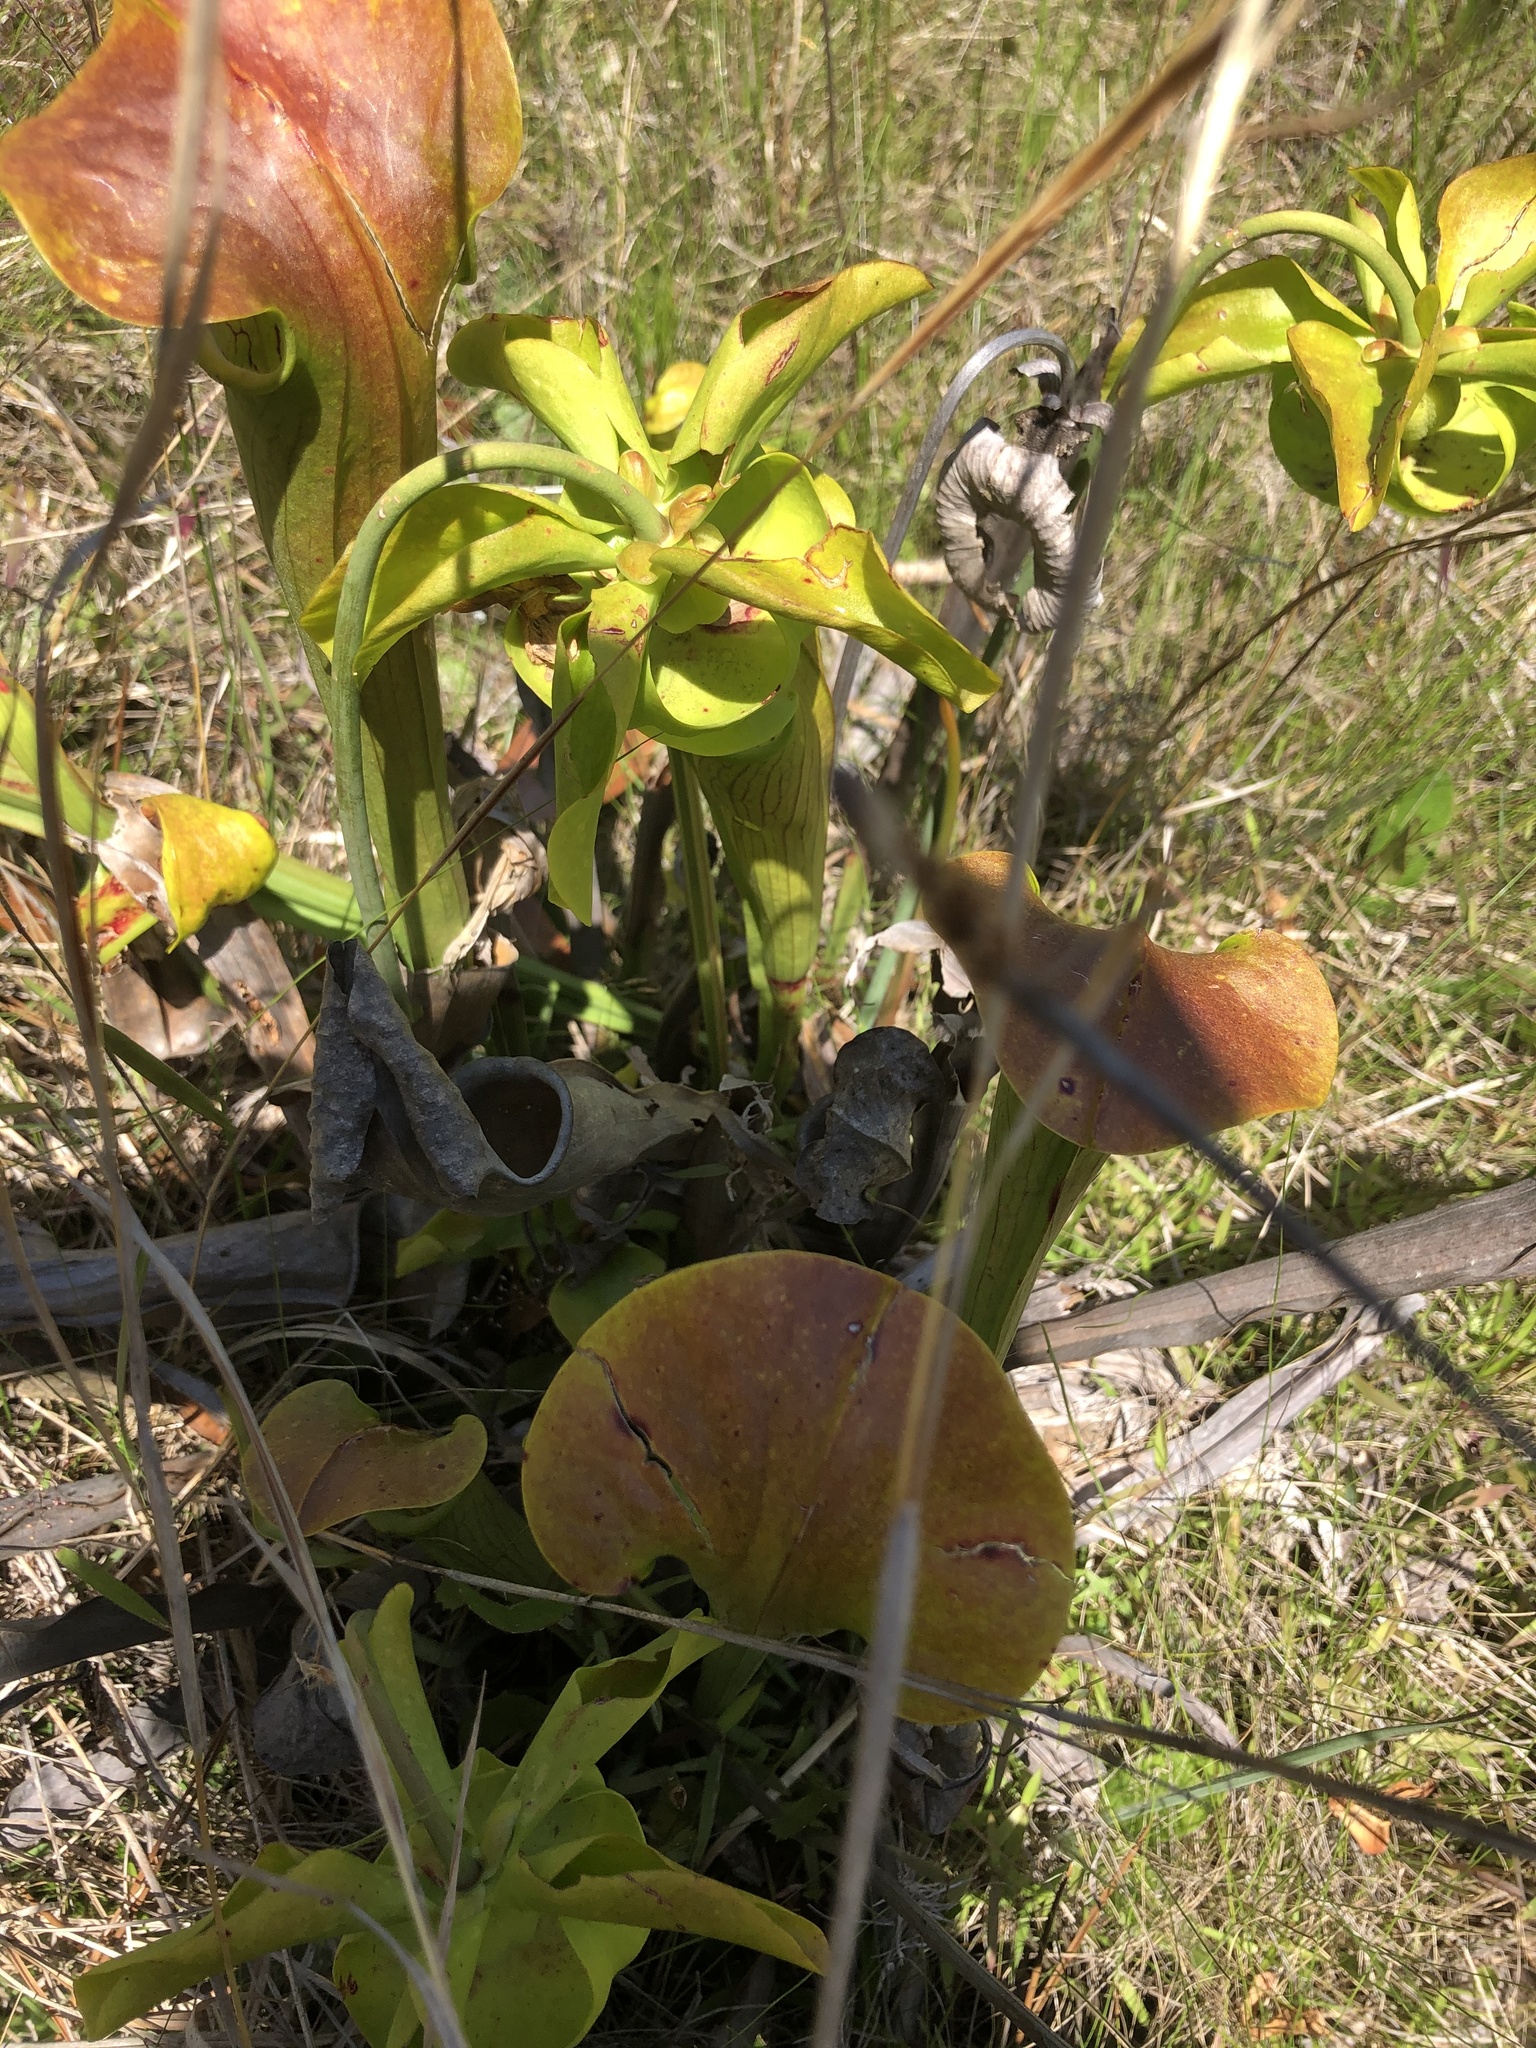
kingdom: Plantae
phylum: Tracheophyta
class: Magnoliopsida
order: Ericales
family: Sarraceniaceae
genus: Sarracenia
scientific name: Sarracenia alata
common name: Yellow trumpets
